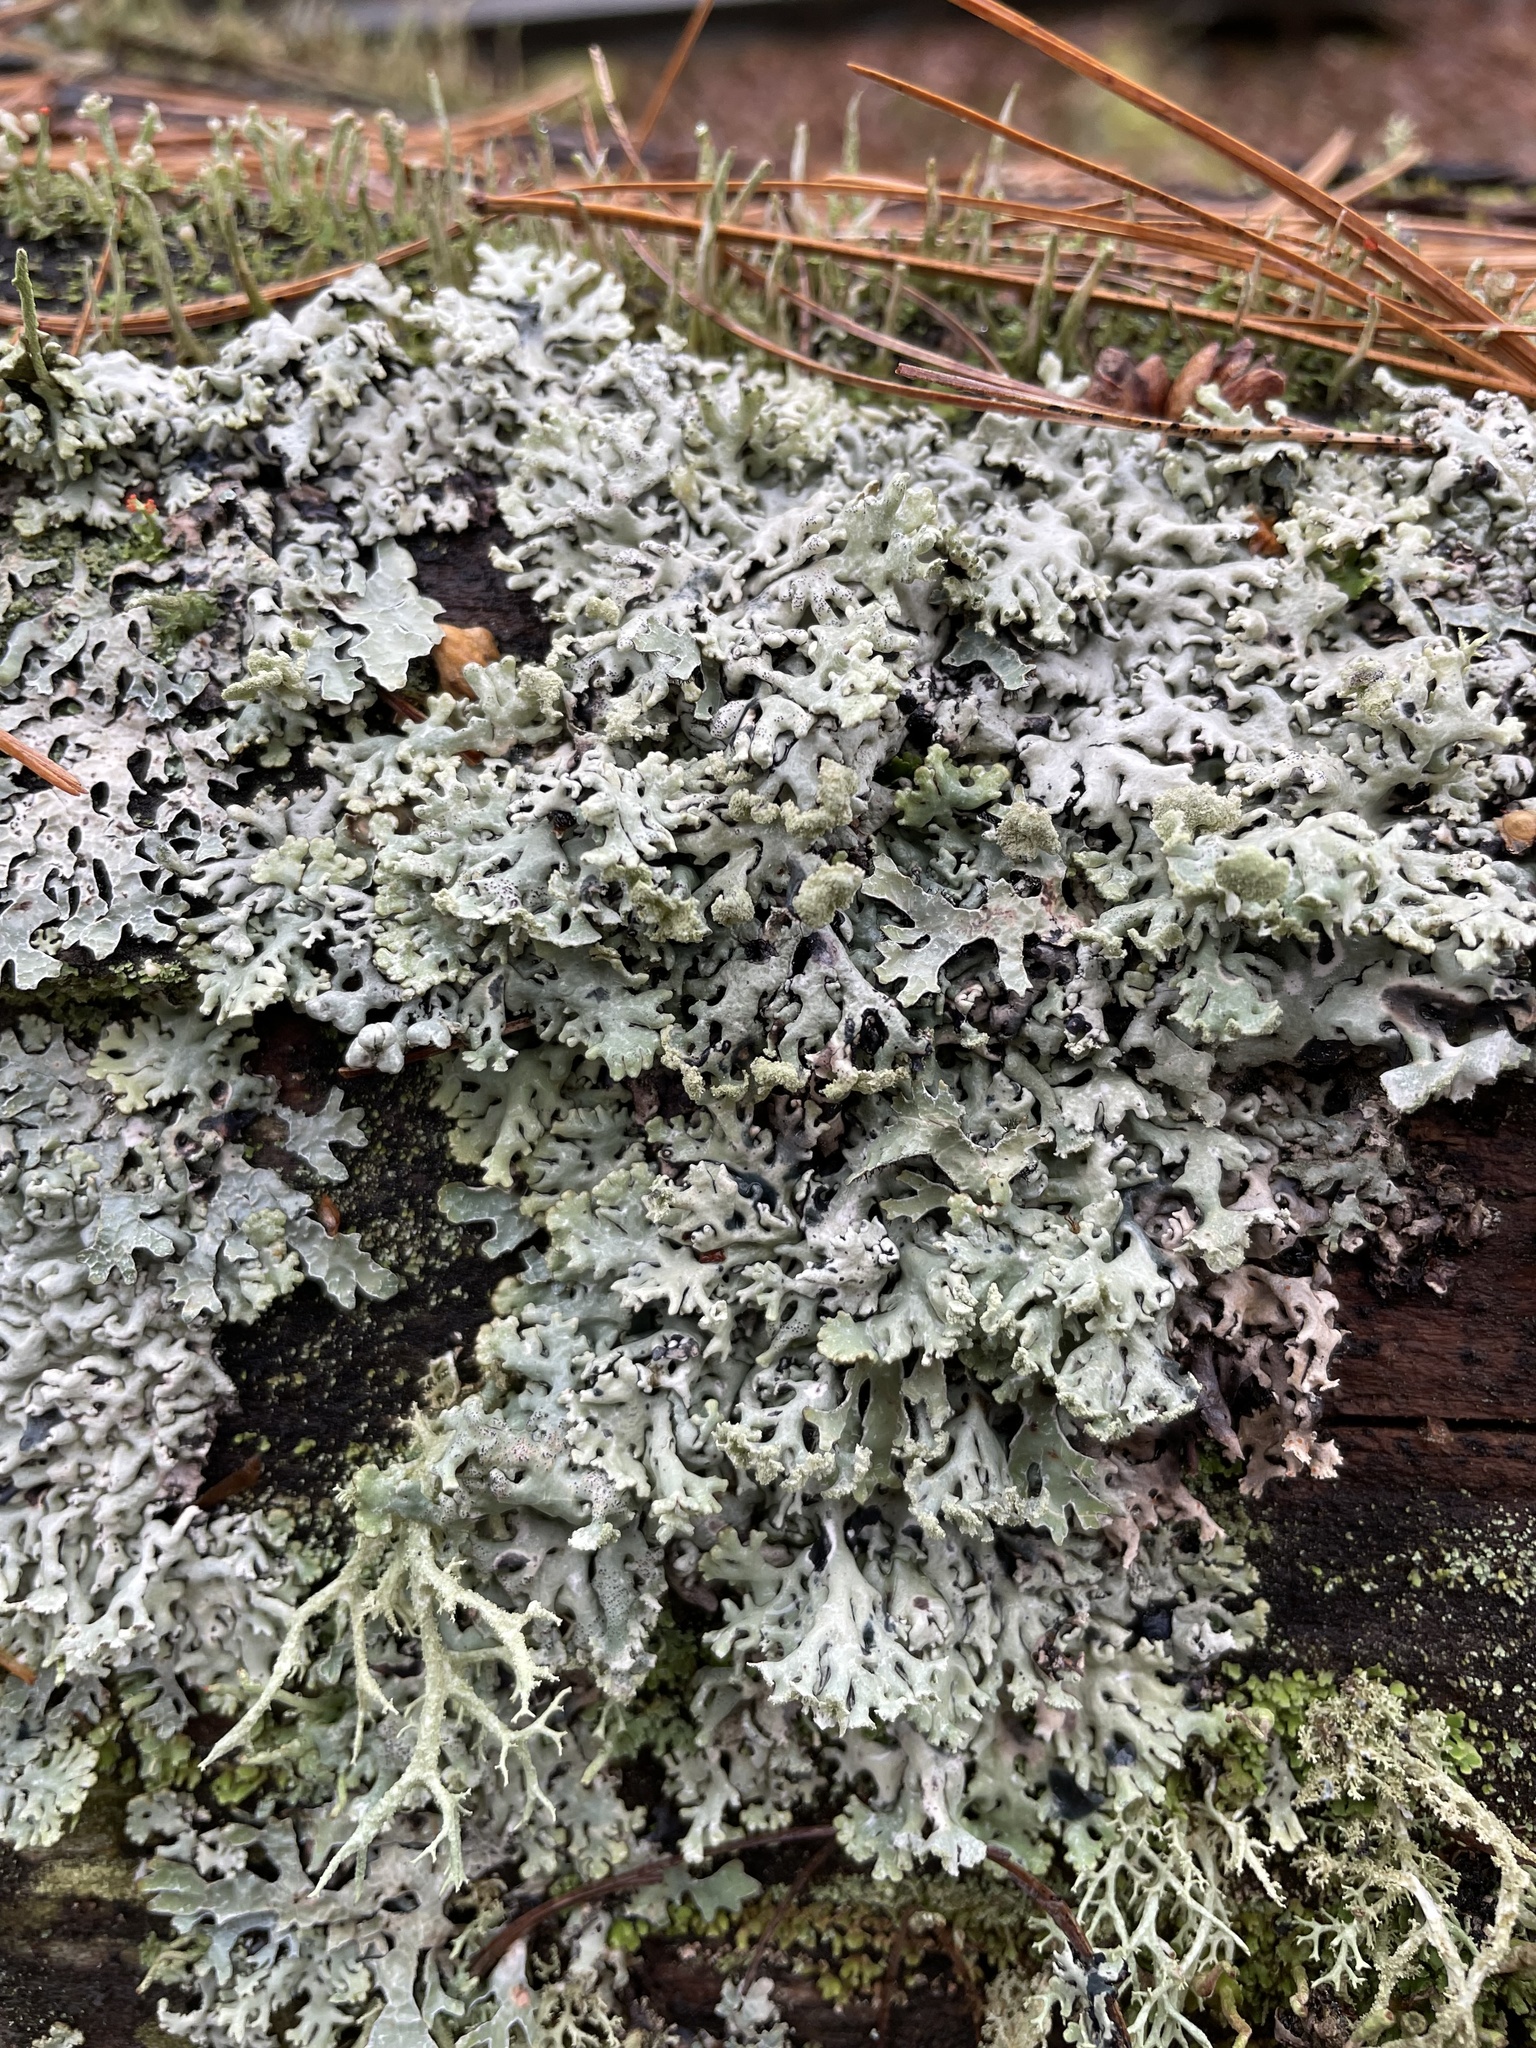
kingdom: Fungi
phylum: Ascomycota
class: Lecanoromycetes
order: Lecanorales
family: Parmeliaceae
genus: Hypogymnia
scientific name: Hypogymnia physodes
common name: Dark crottle
